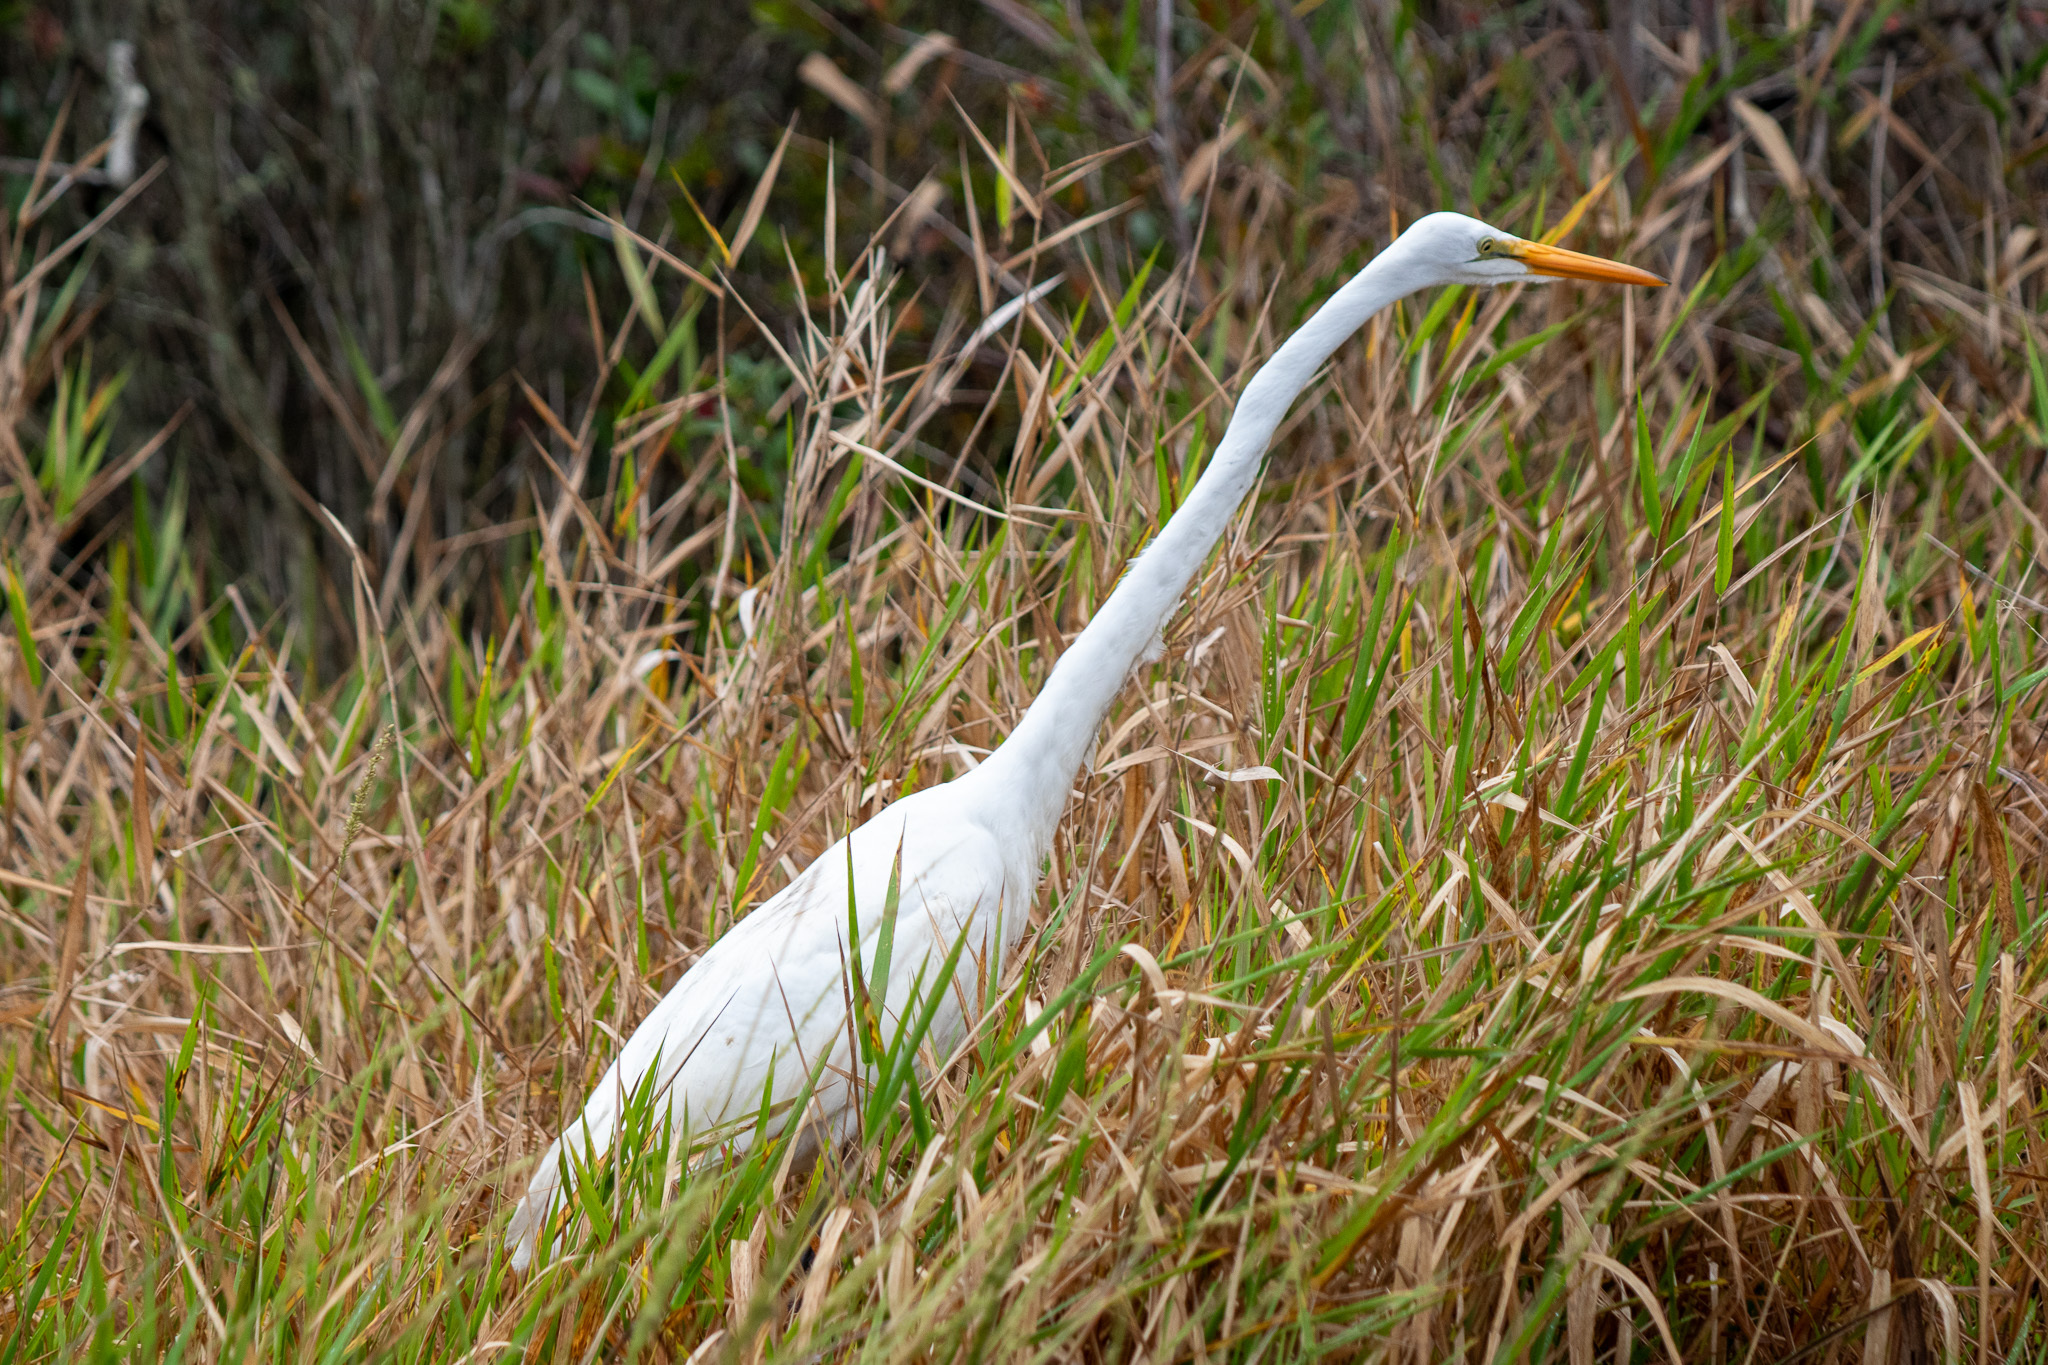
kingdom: Animalia
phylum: Chordata
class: Aves
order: Pelecaniformes
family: Ardeidae
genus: Ardea
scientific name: Ardea alba
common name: Great egret
